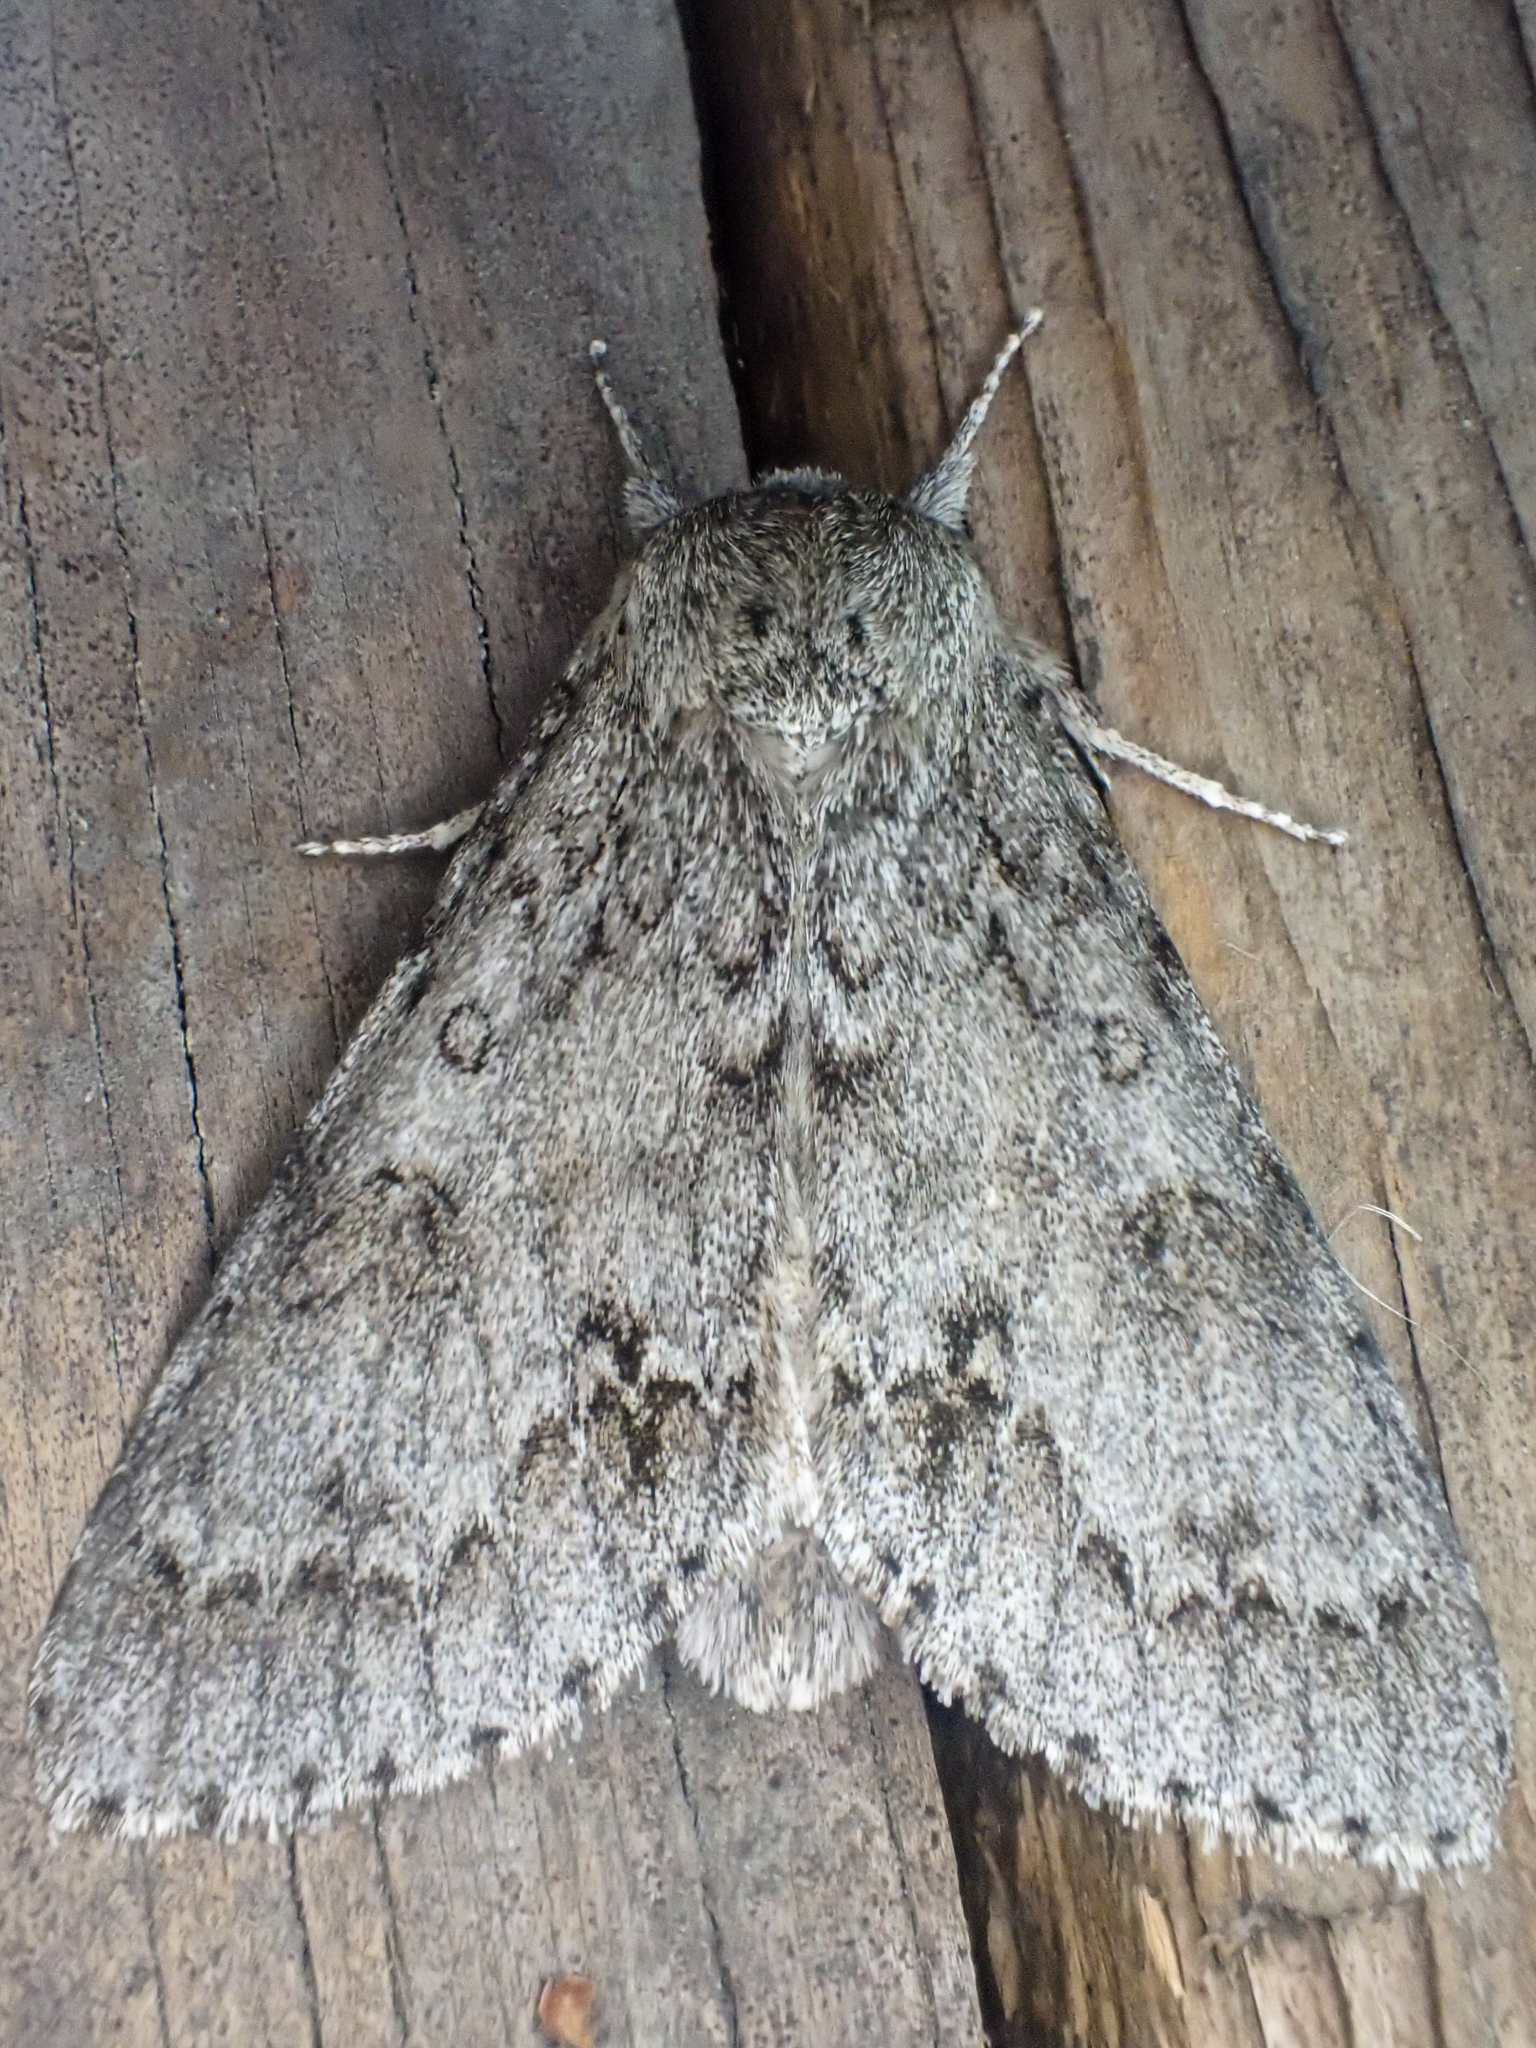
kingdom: Animalia
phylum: Arthropoda
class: Insecta
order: Lepidoptera
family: Noctuidae
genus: Acronicta
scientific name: Acronicta insita
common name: Large gray dagger
